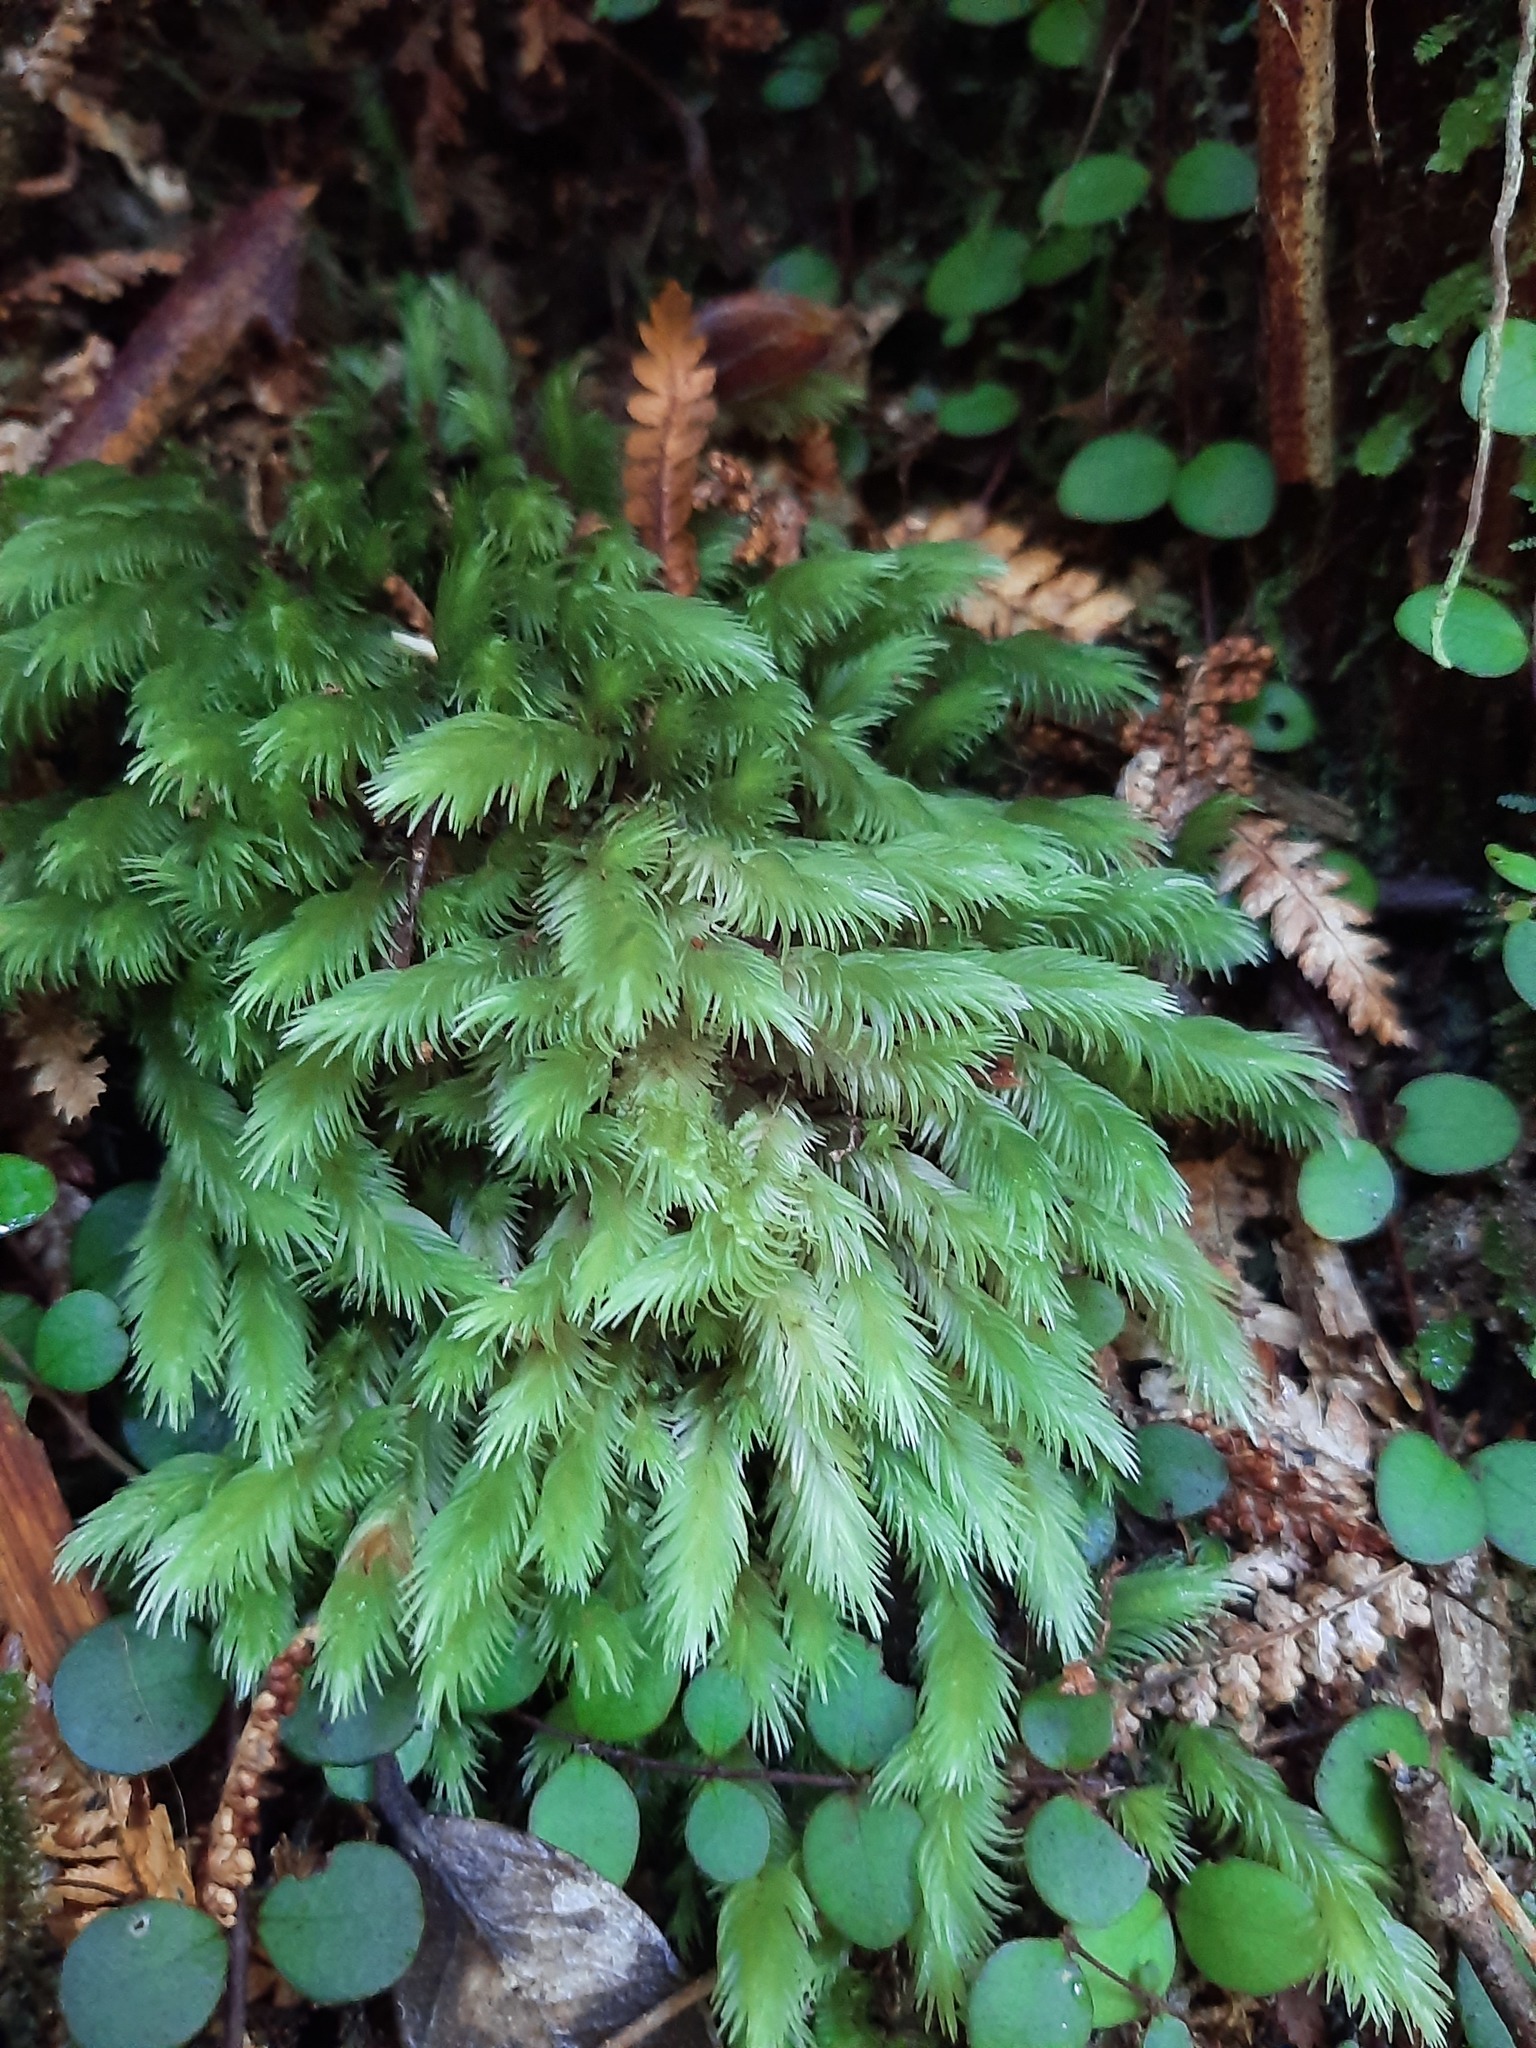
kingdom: Plantae
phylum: Bryophyta
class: Bryopsida
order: Dicranales
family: Leucobryaceae
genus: Leucobryum
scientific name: Leucobryum javense
